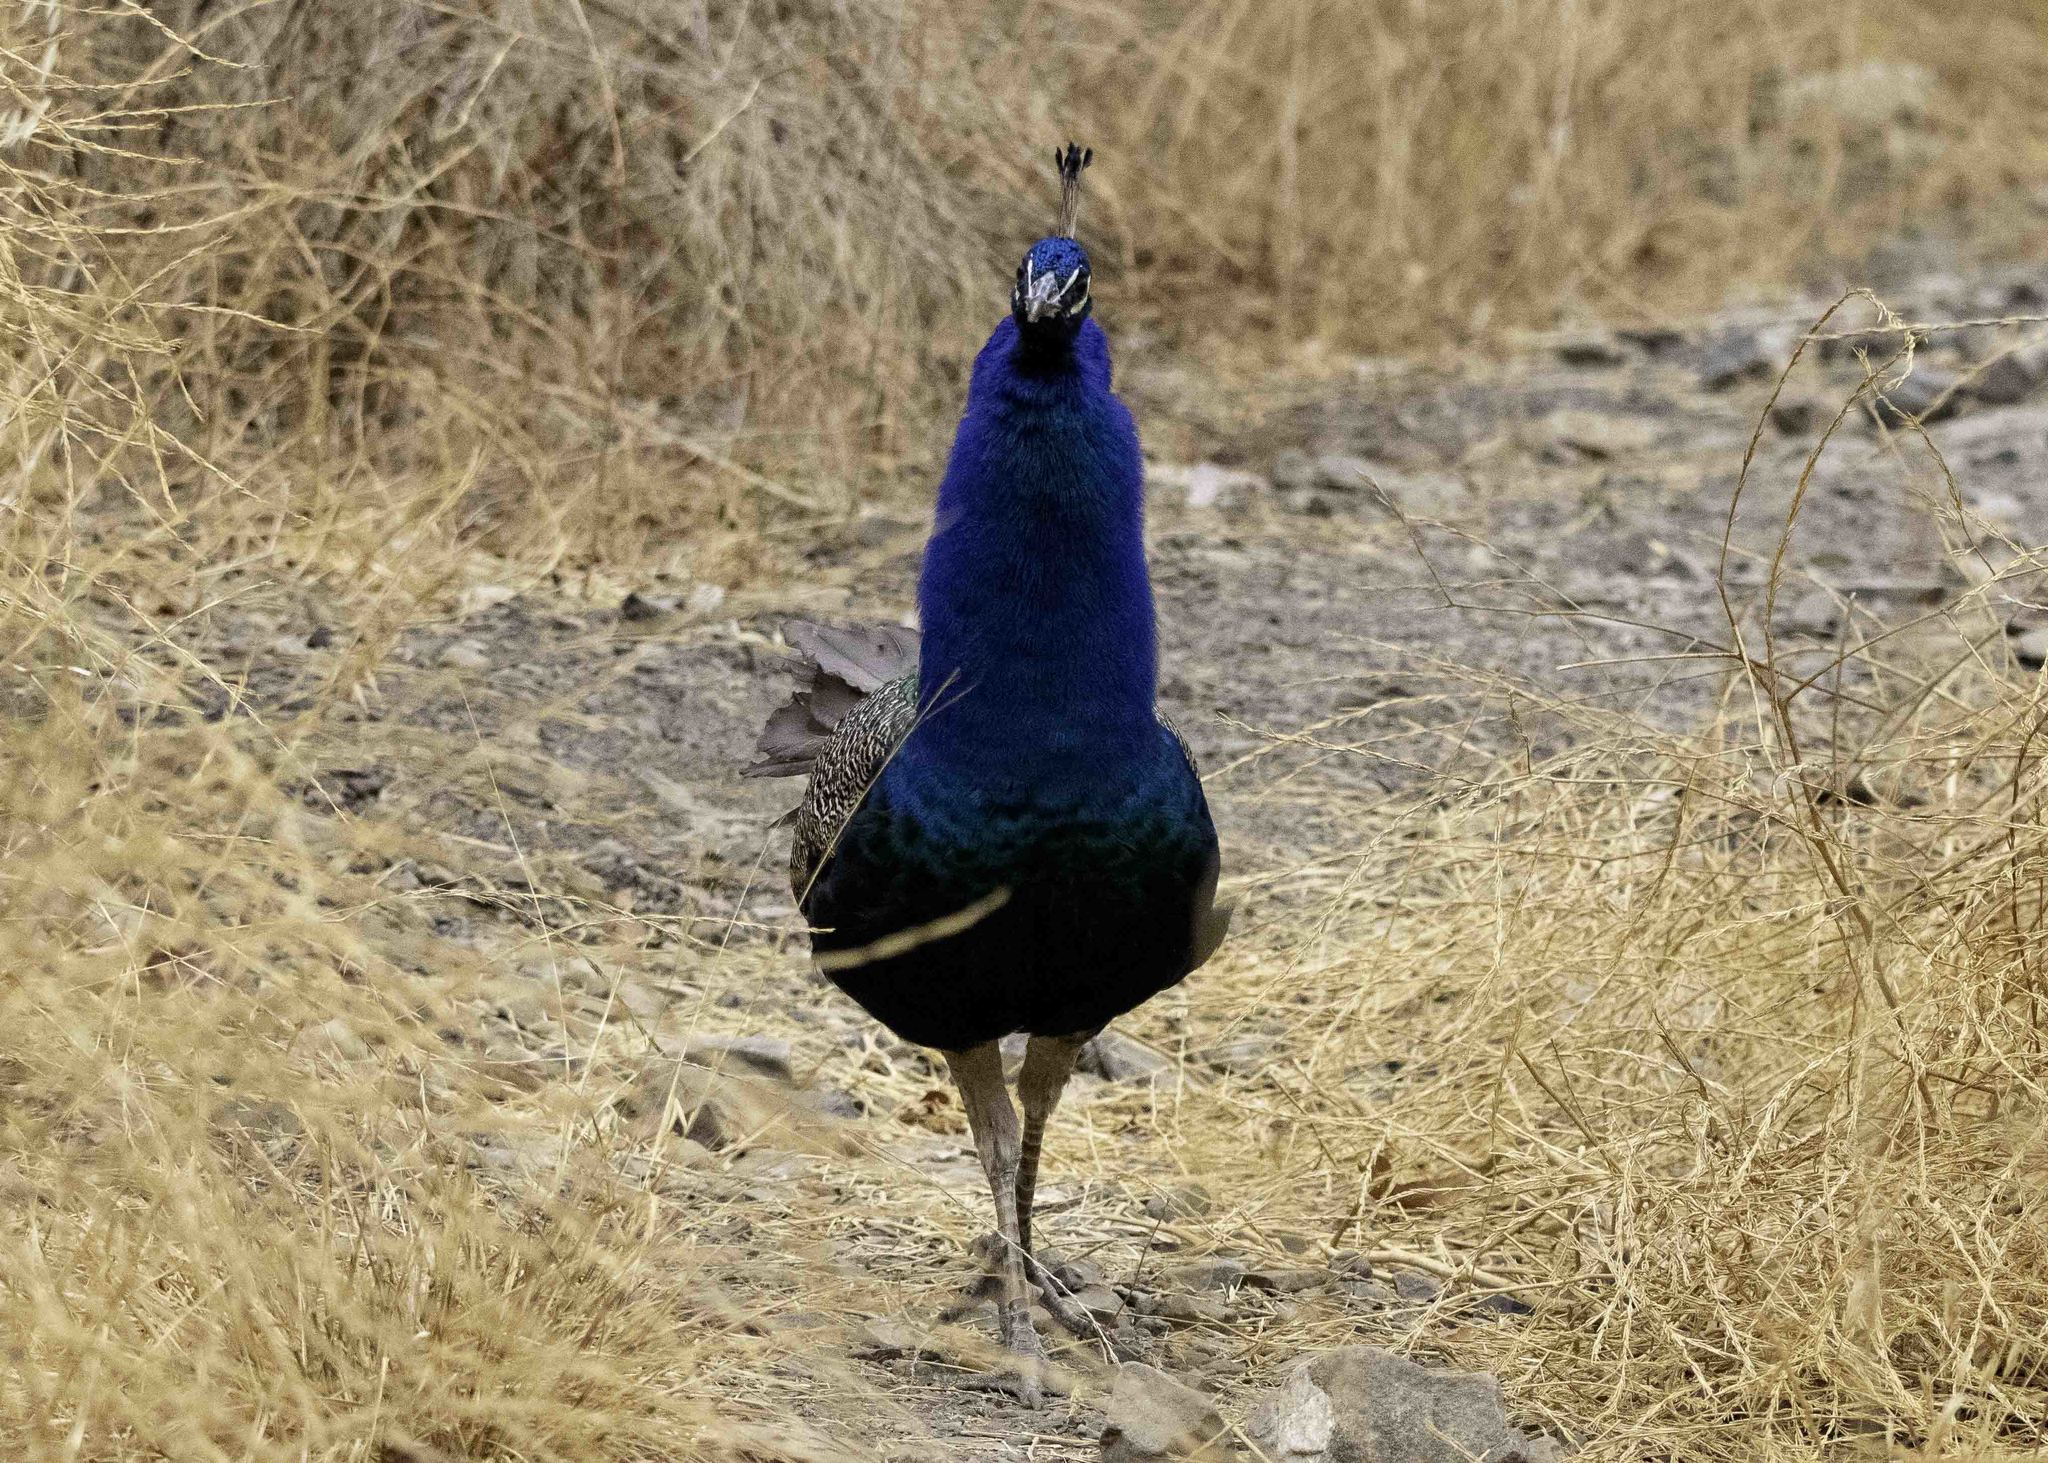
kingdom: Animalia
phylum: Chordata
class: Aves
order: Galliformes
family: Phasianidae
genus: Pavo
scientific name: Pavo cristatus
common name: Indian peafowl
